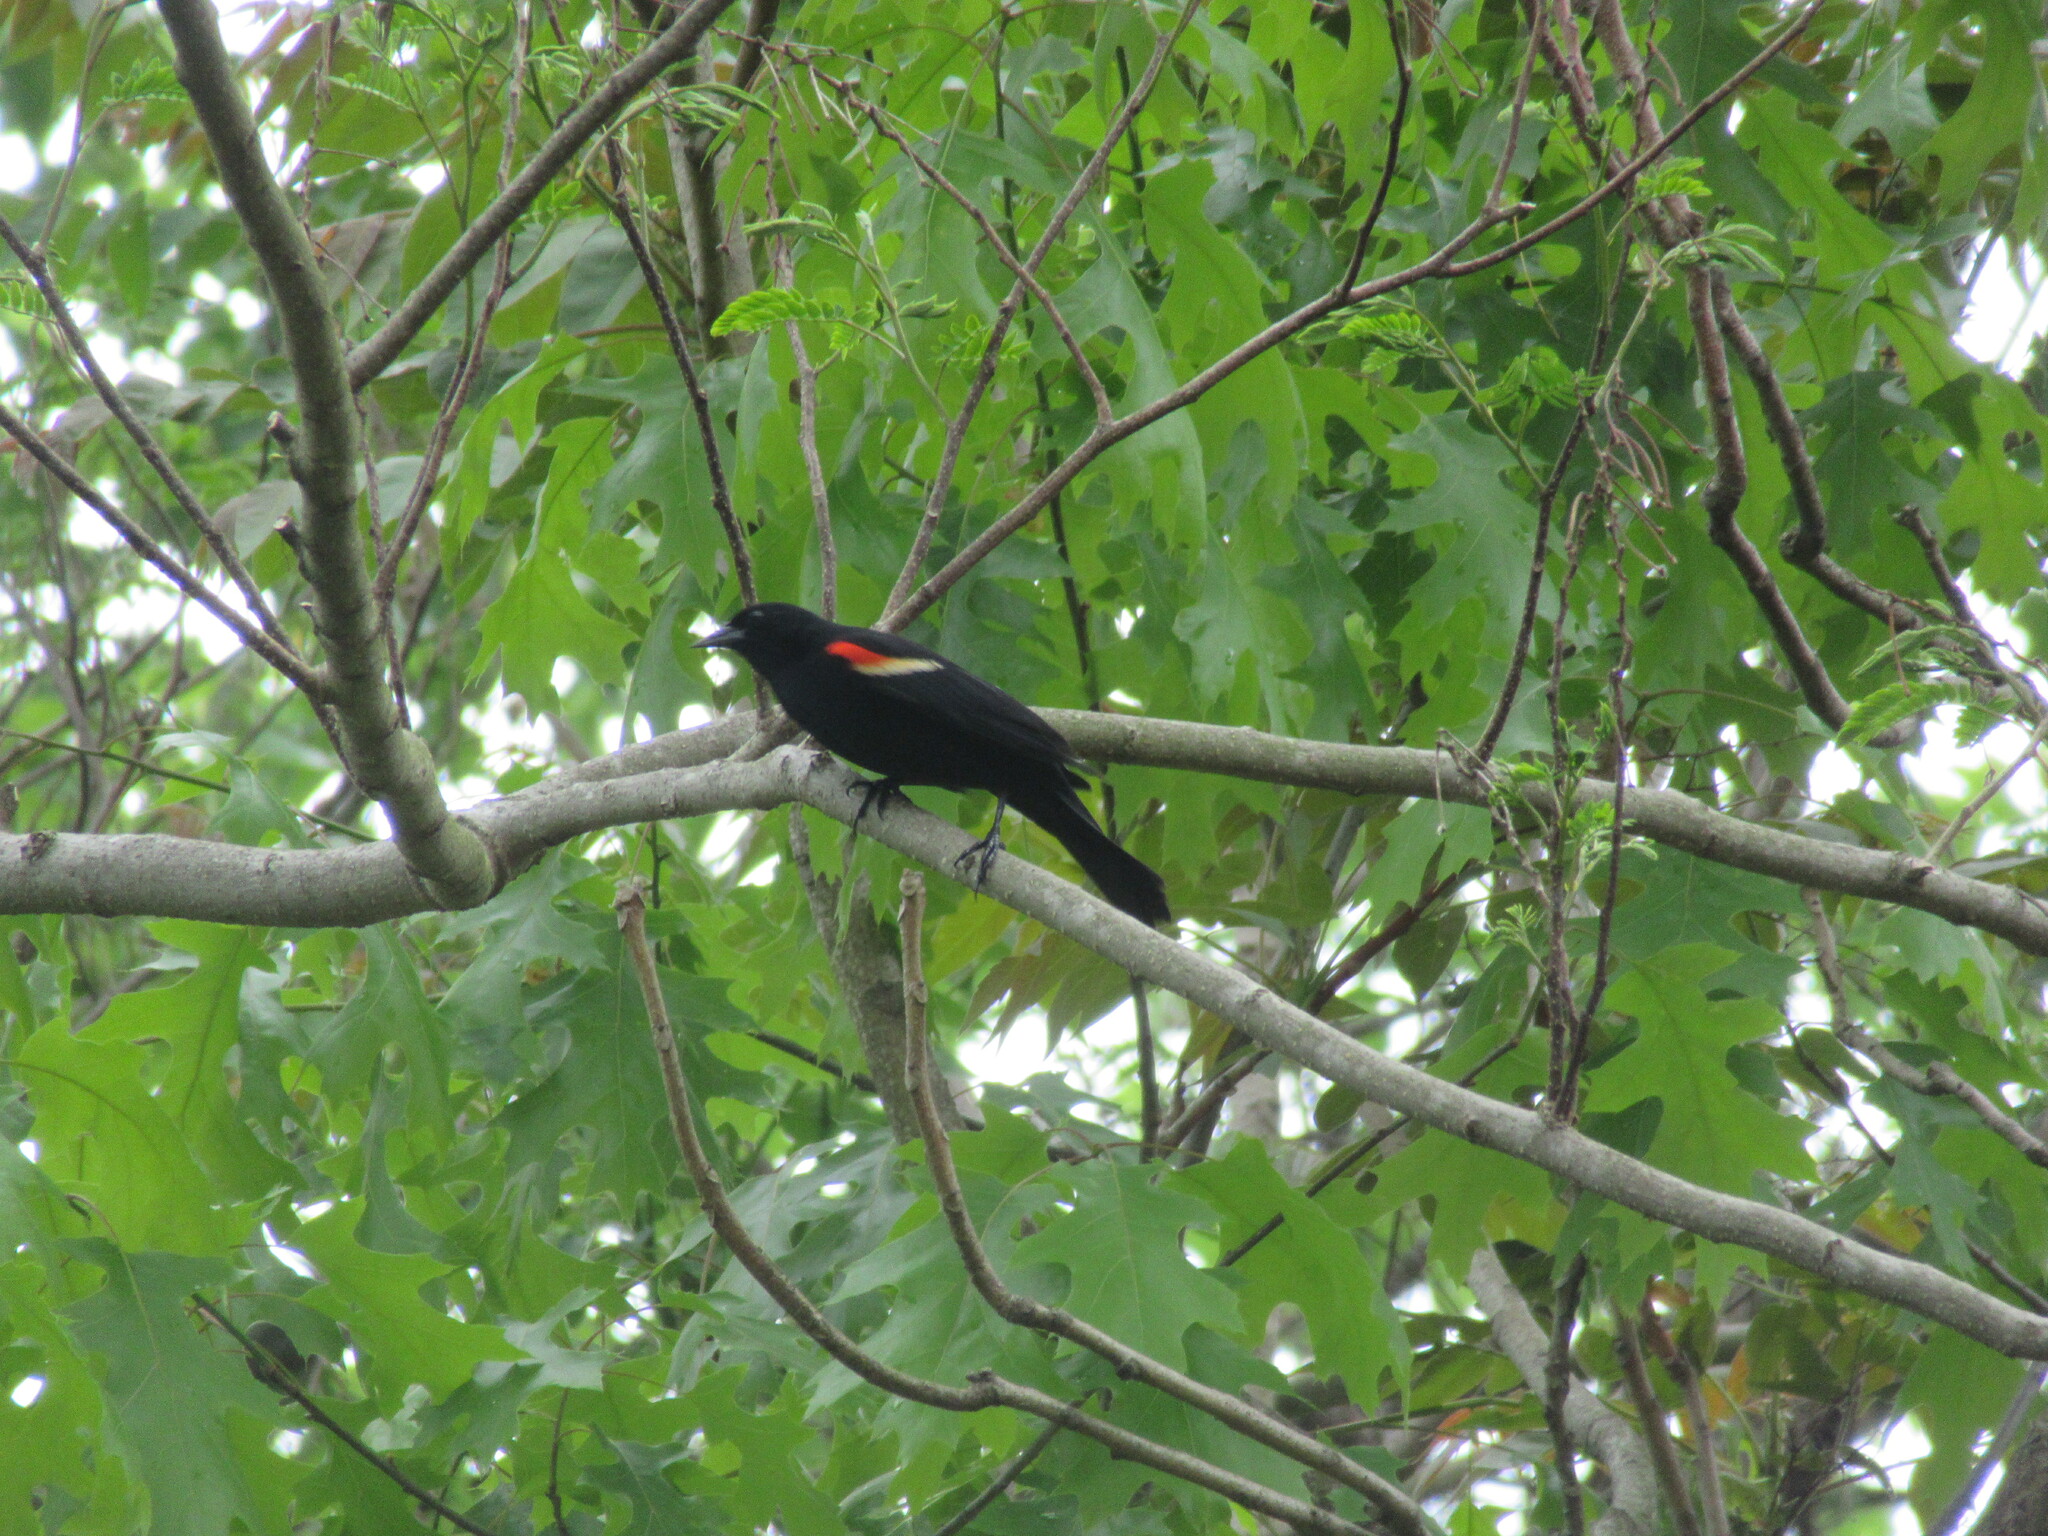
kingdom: Animalia
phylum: Chordata
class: Aves
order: Passeriformes
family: Icteridae
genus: Agelaius
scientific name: Agelaius phoeniceus
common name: Red-winged blackbird
